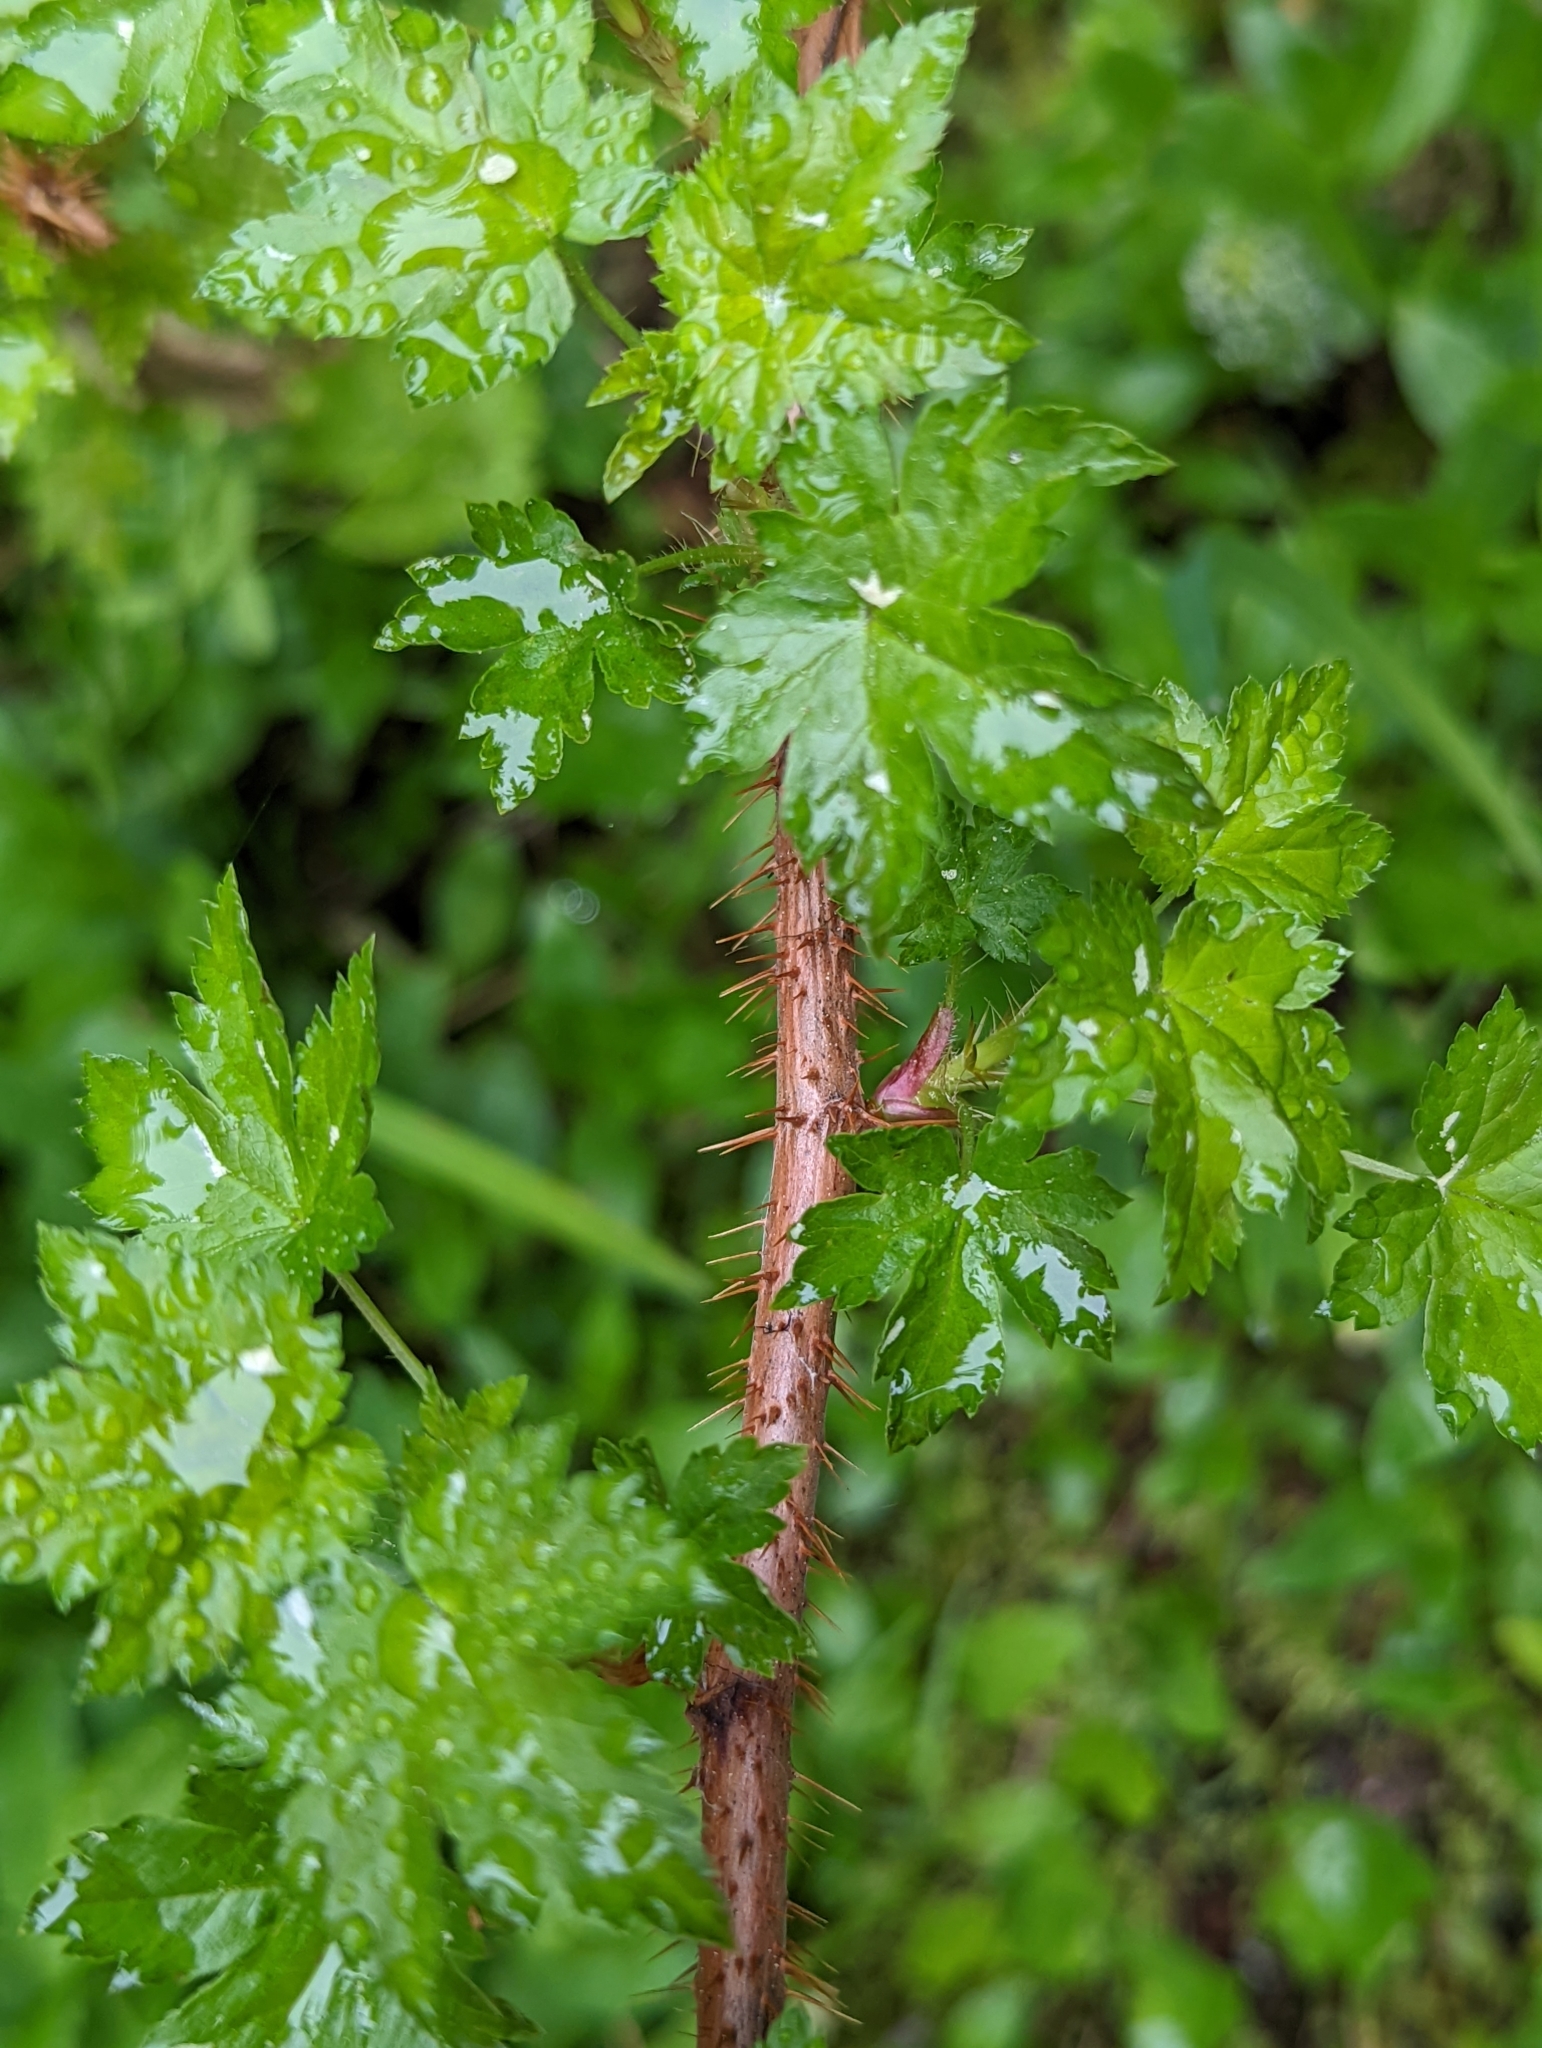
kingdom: Plantae
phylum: Tracheophyta
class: Magnoliopsida
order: Saxifragales
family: Grossulariaceae
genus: Ribes
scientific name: Ribes lacustre
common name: Black gooseberry
